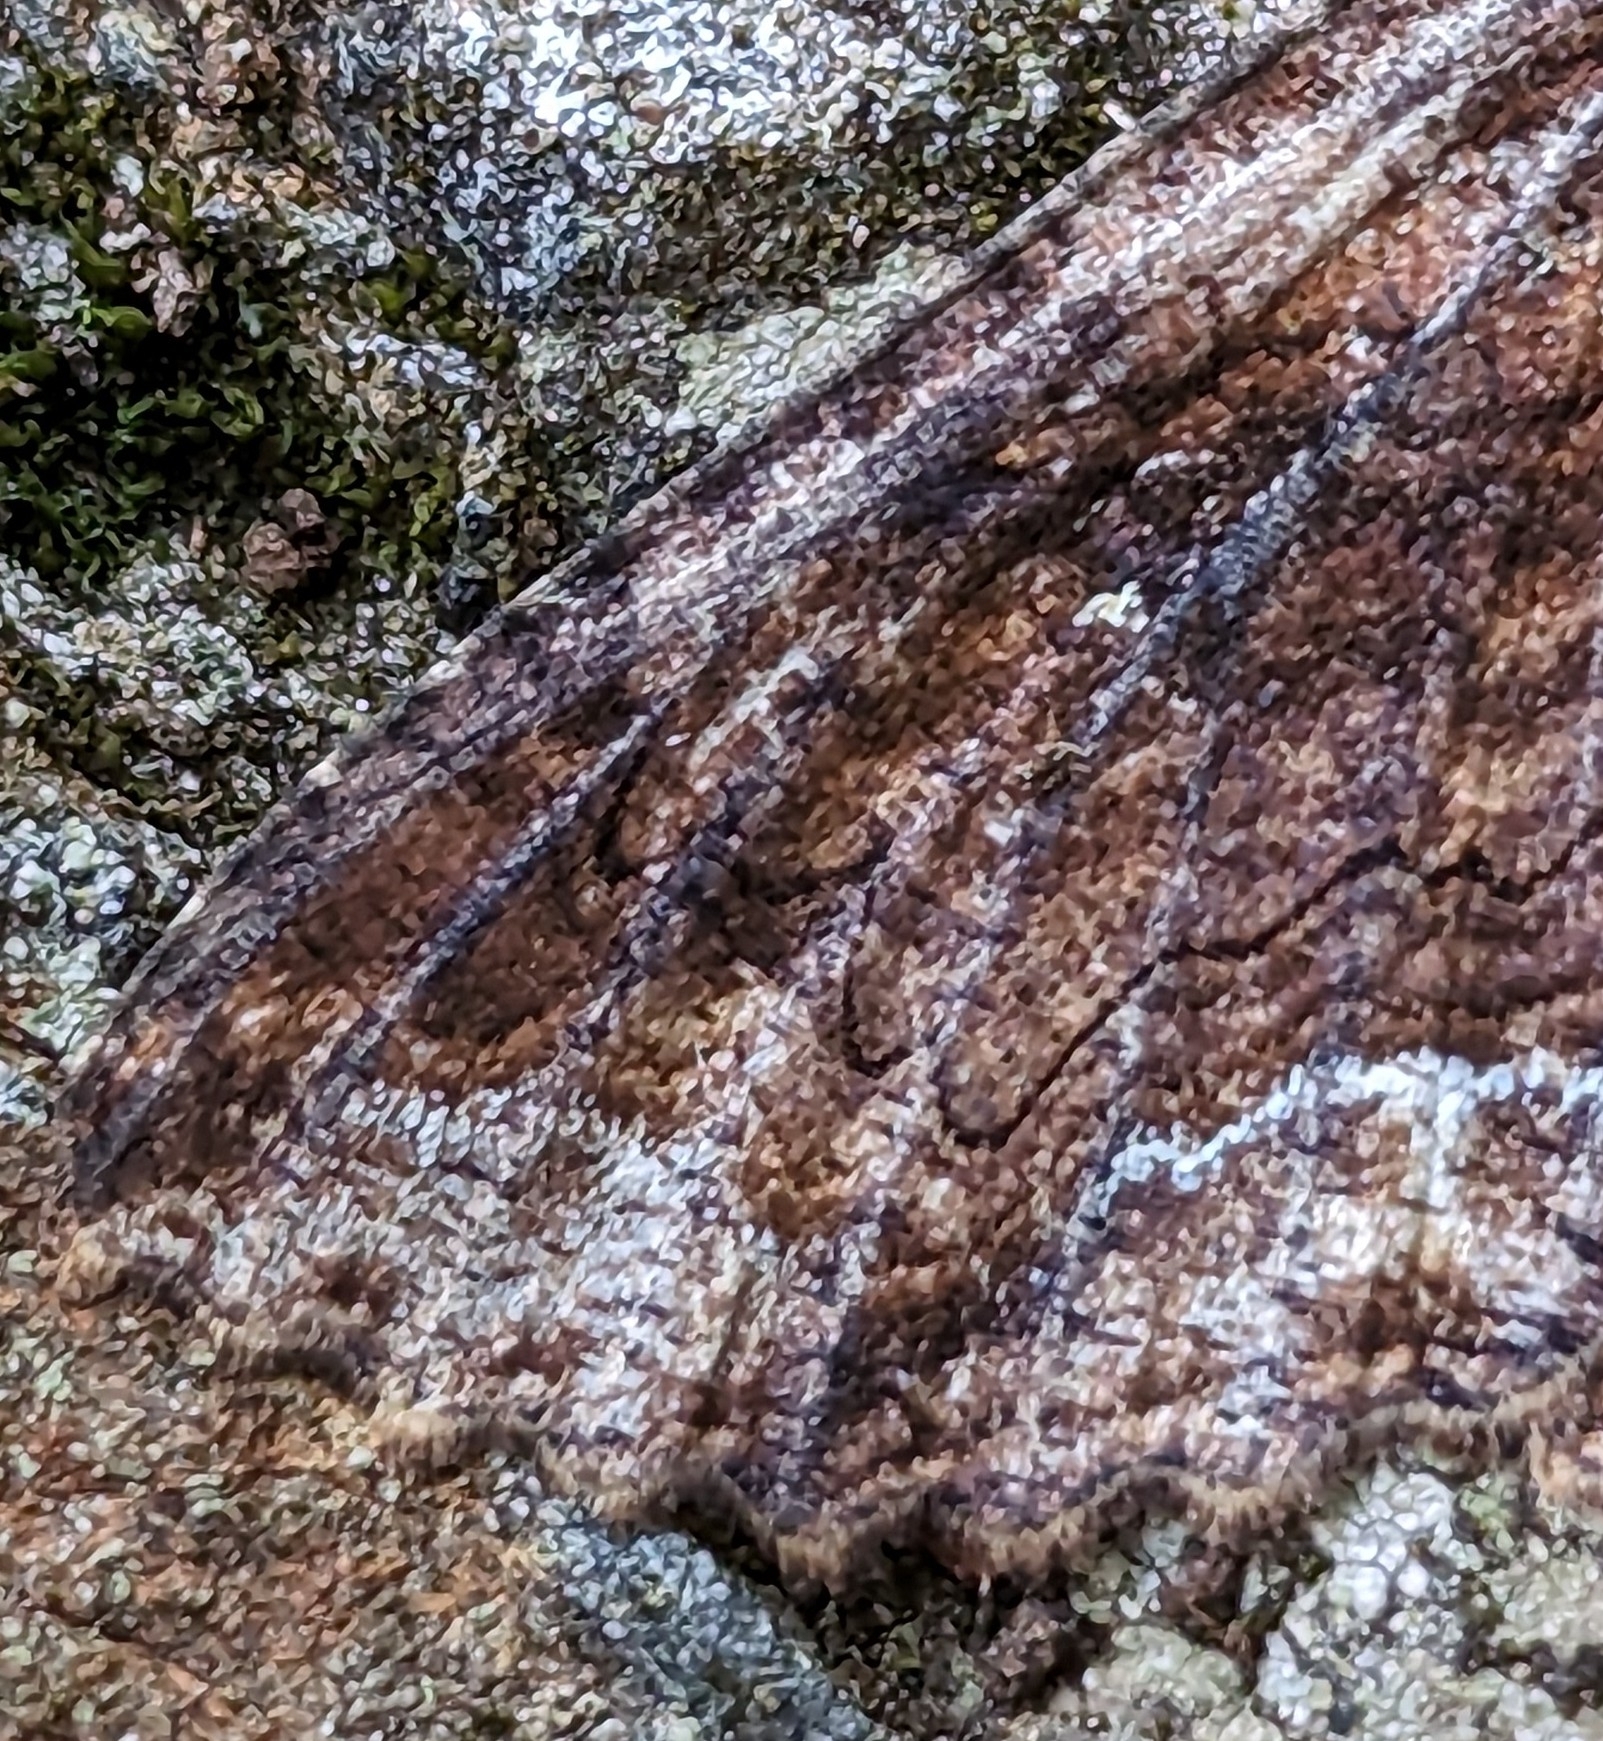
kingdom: Animalia
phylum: Arthropoda
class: Insecta
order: Lepidoptera
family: Erebidae
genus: Zale
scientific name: Zale lunata
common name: Lunate zale moth
